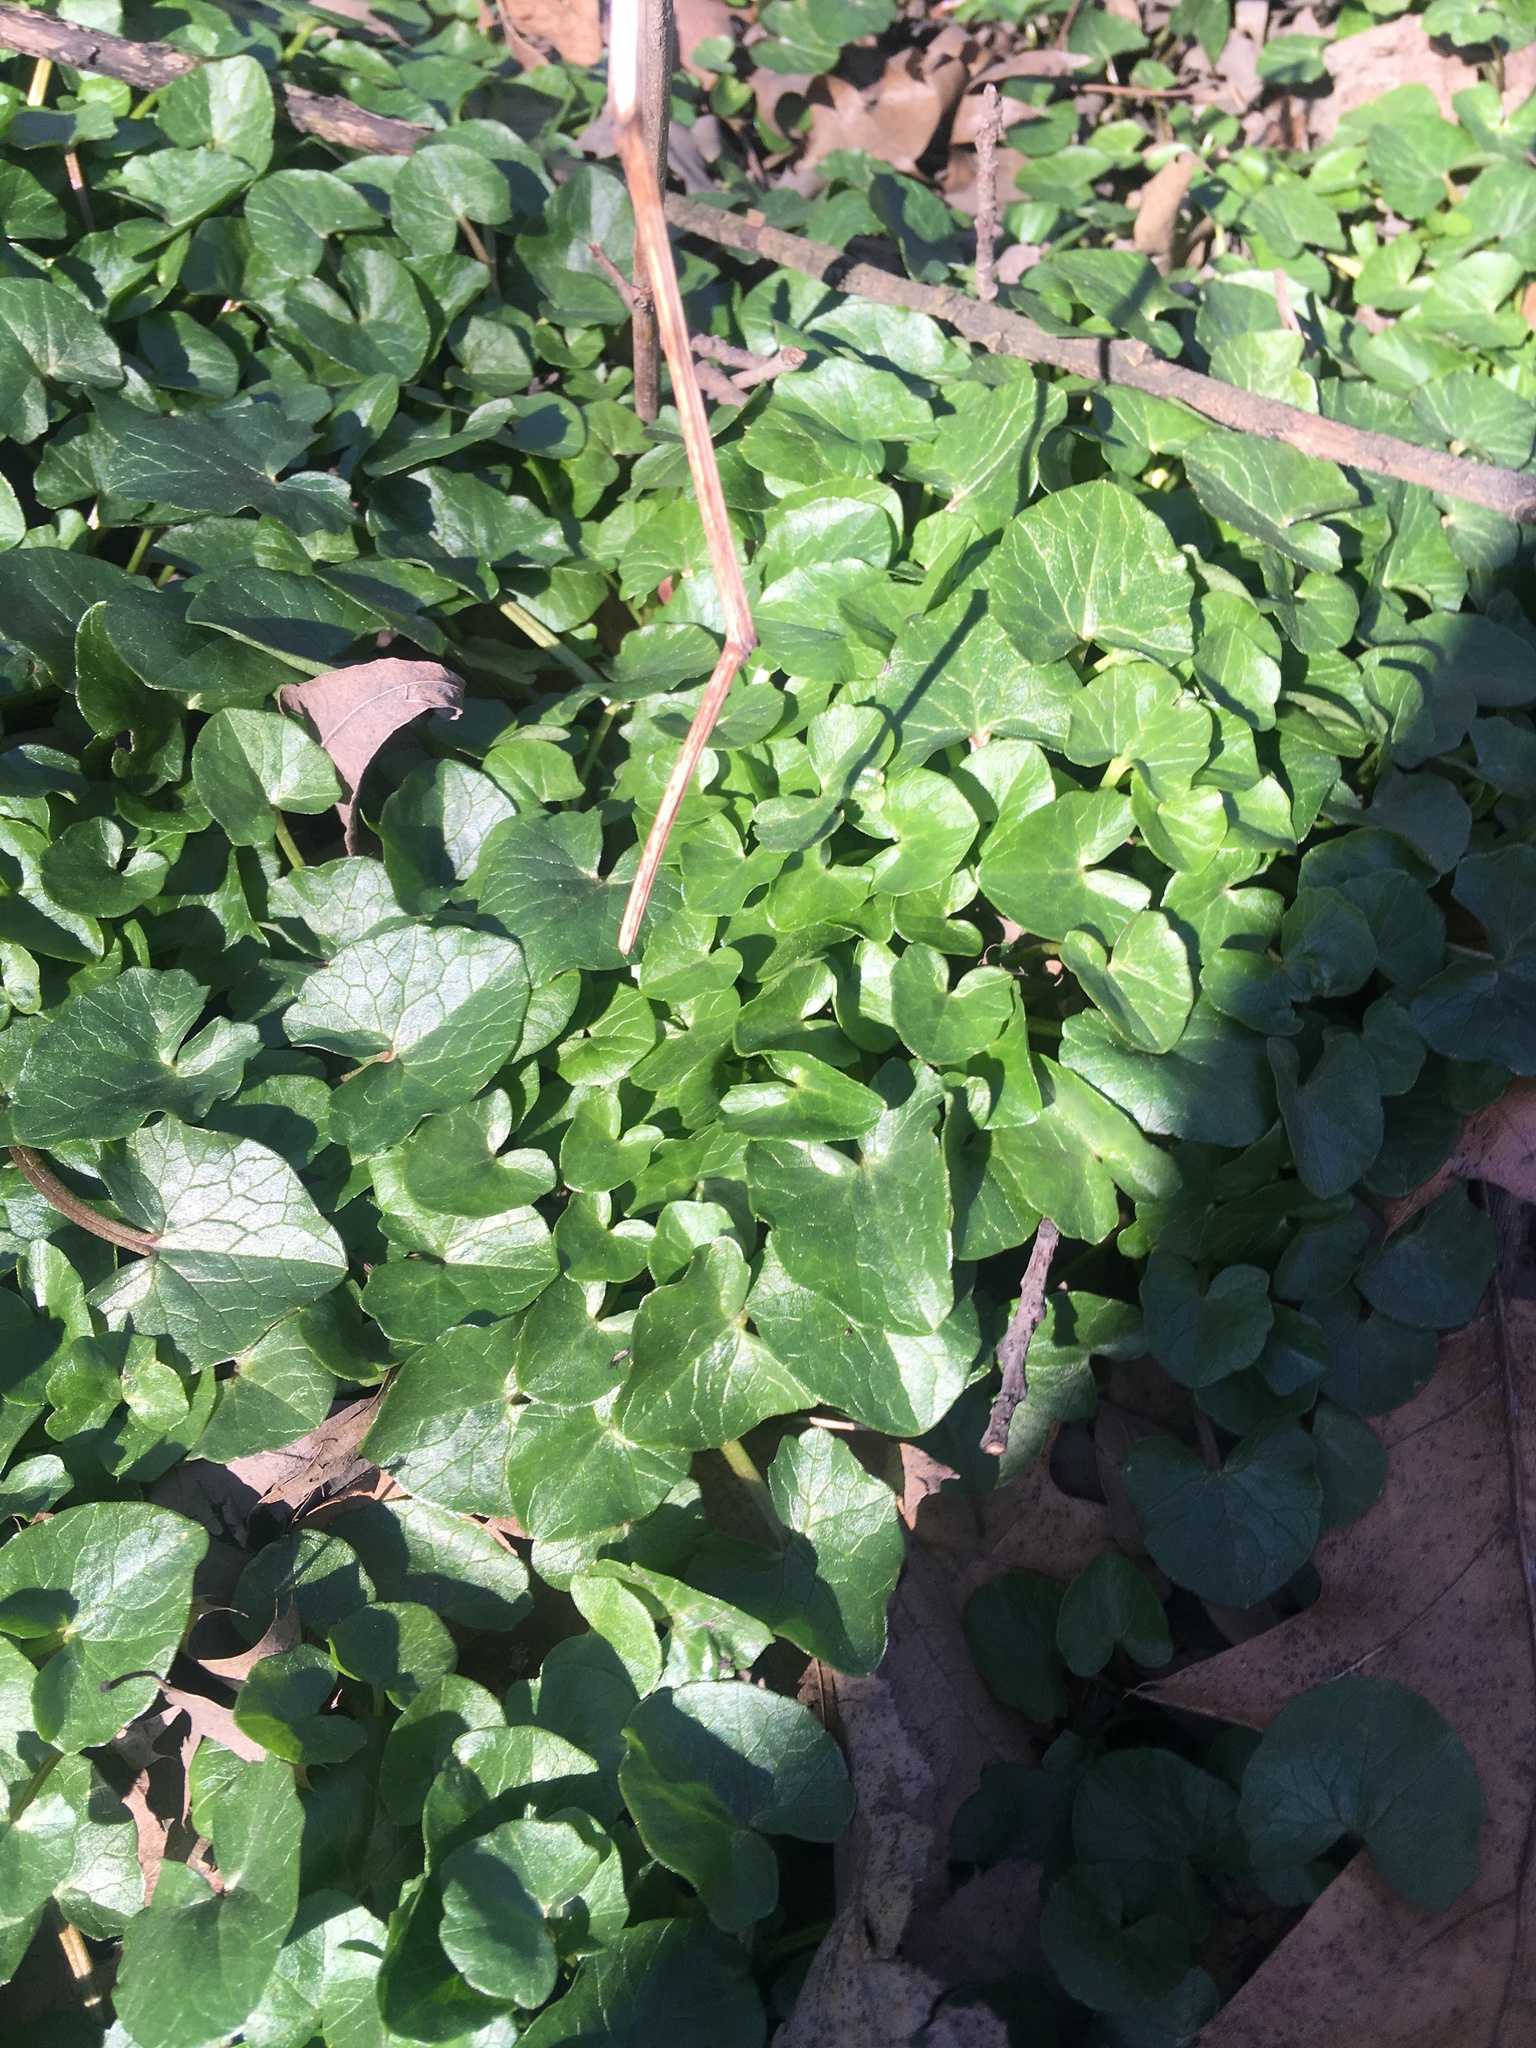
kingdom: Plantae
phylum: Tracheophyta
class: Magnoliopsida
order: Ranunculales
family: Ranunculaceae
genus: Ficaria
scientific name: Ficaria verna
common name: Lesser celandine
